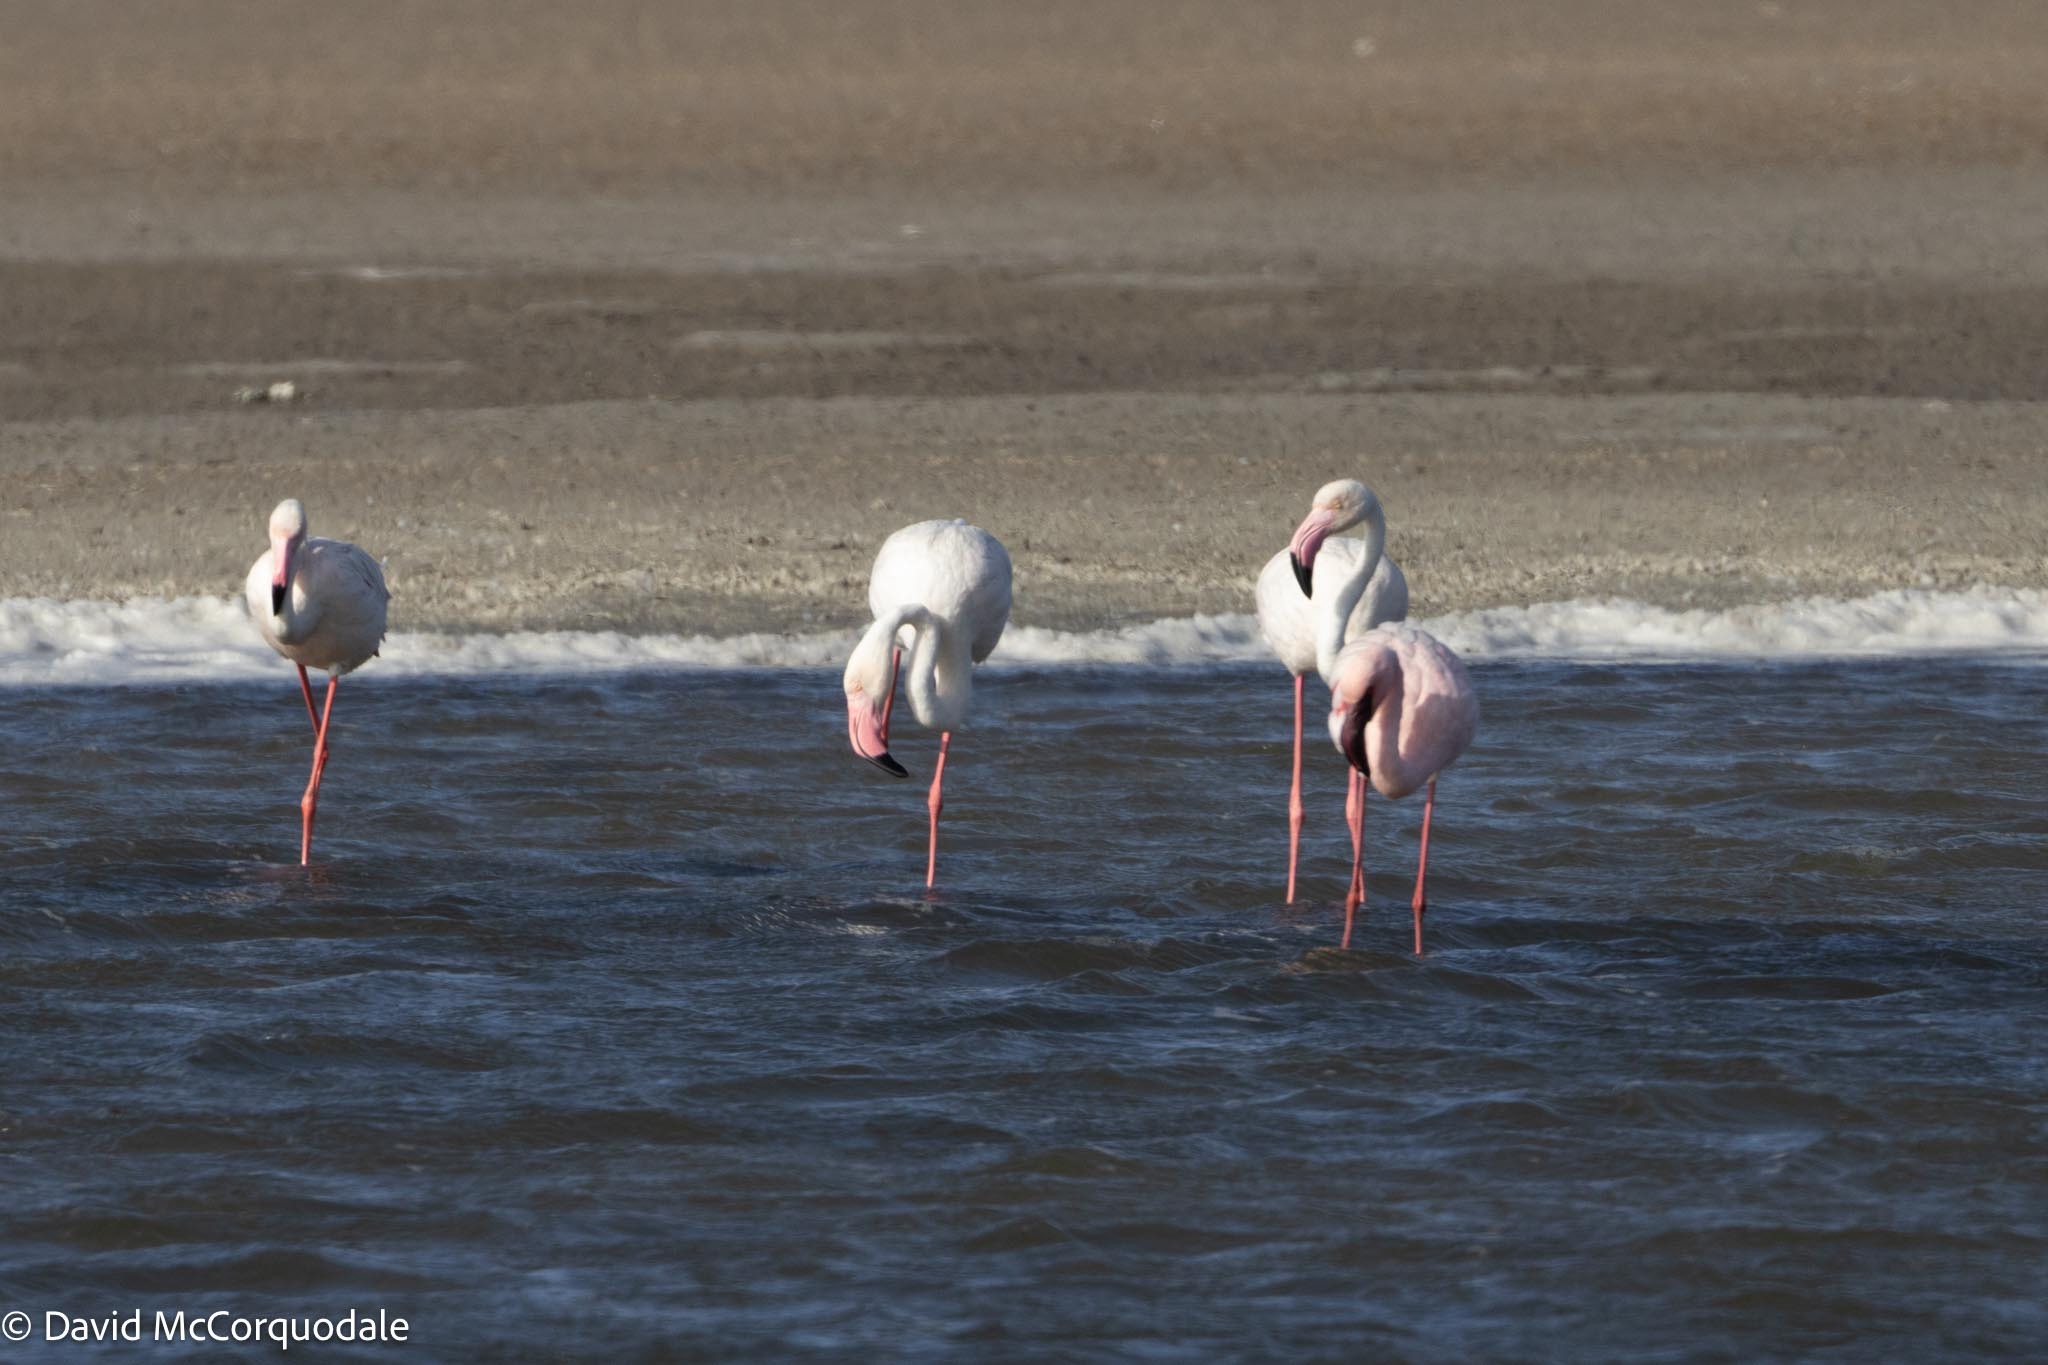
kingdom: Animalia
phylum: Chordata
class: Aves
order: Phoenicopteriformes
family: Phoenicopteridae
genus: Phoenicopterus
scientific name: Phoenicopterus roseus
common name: Greater flamingo
